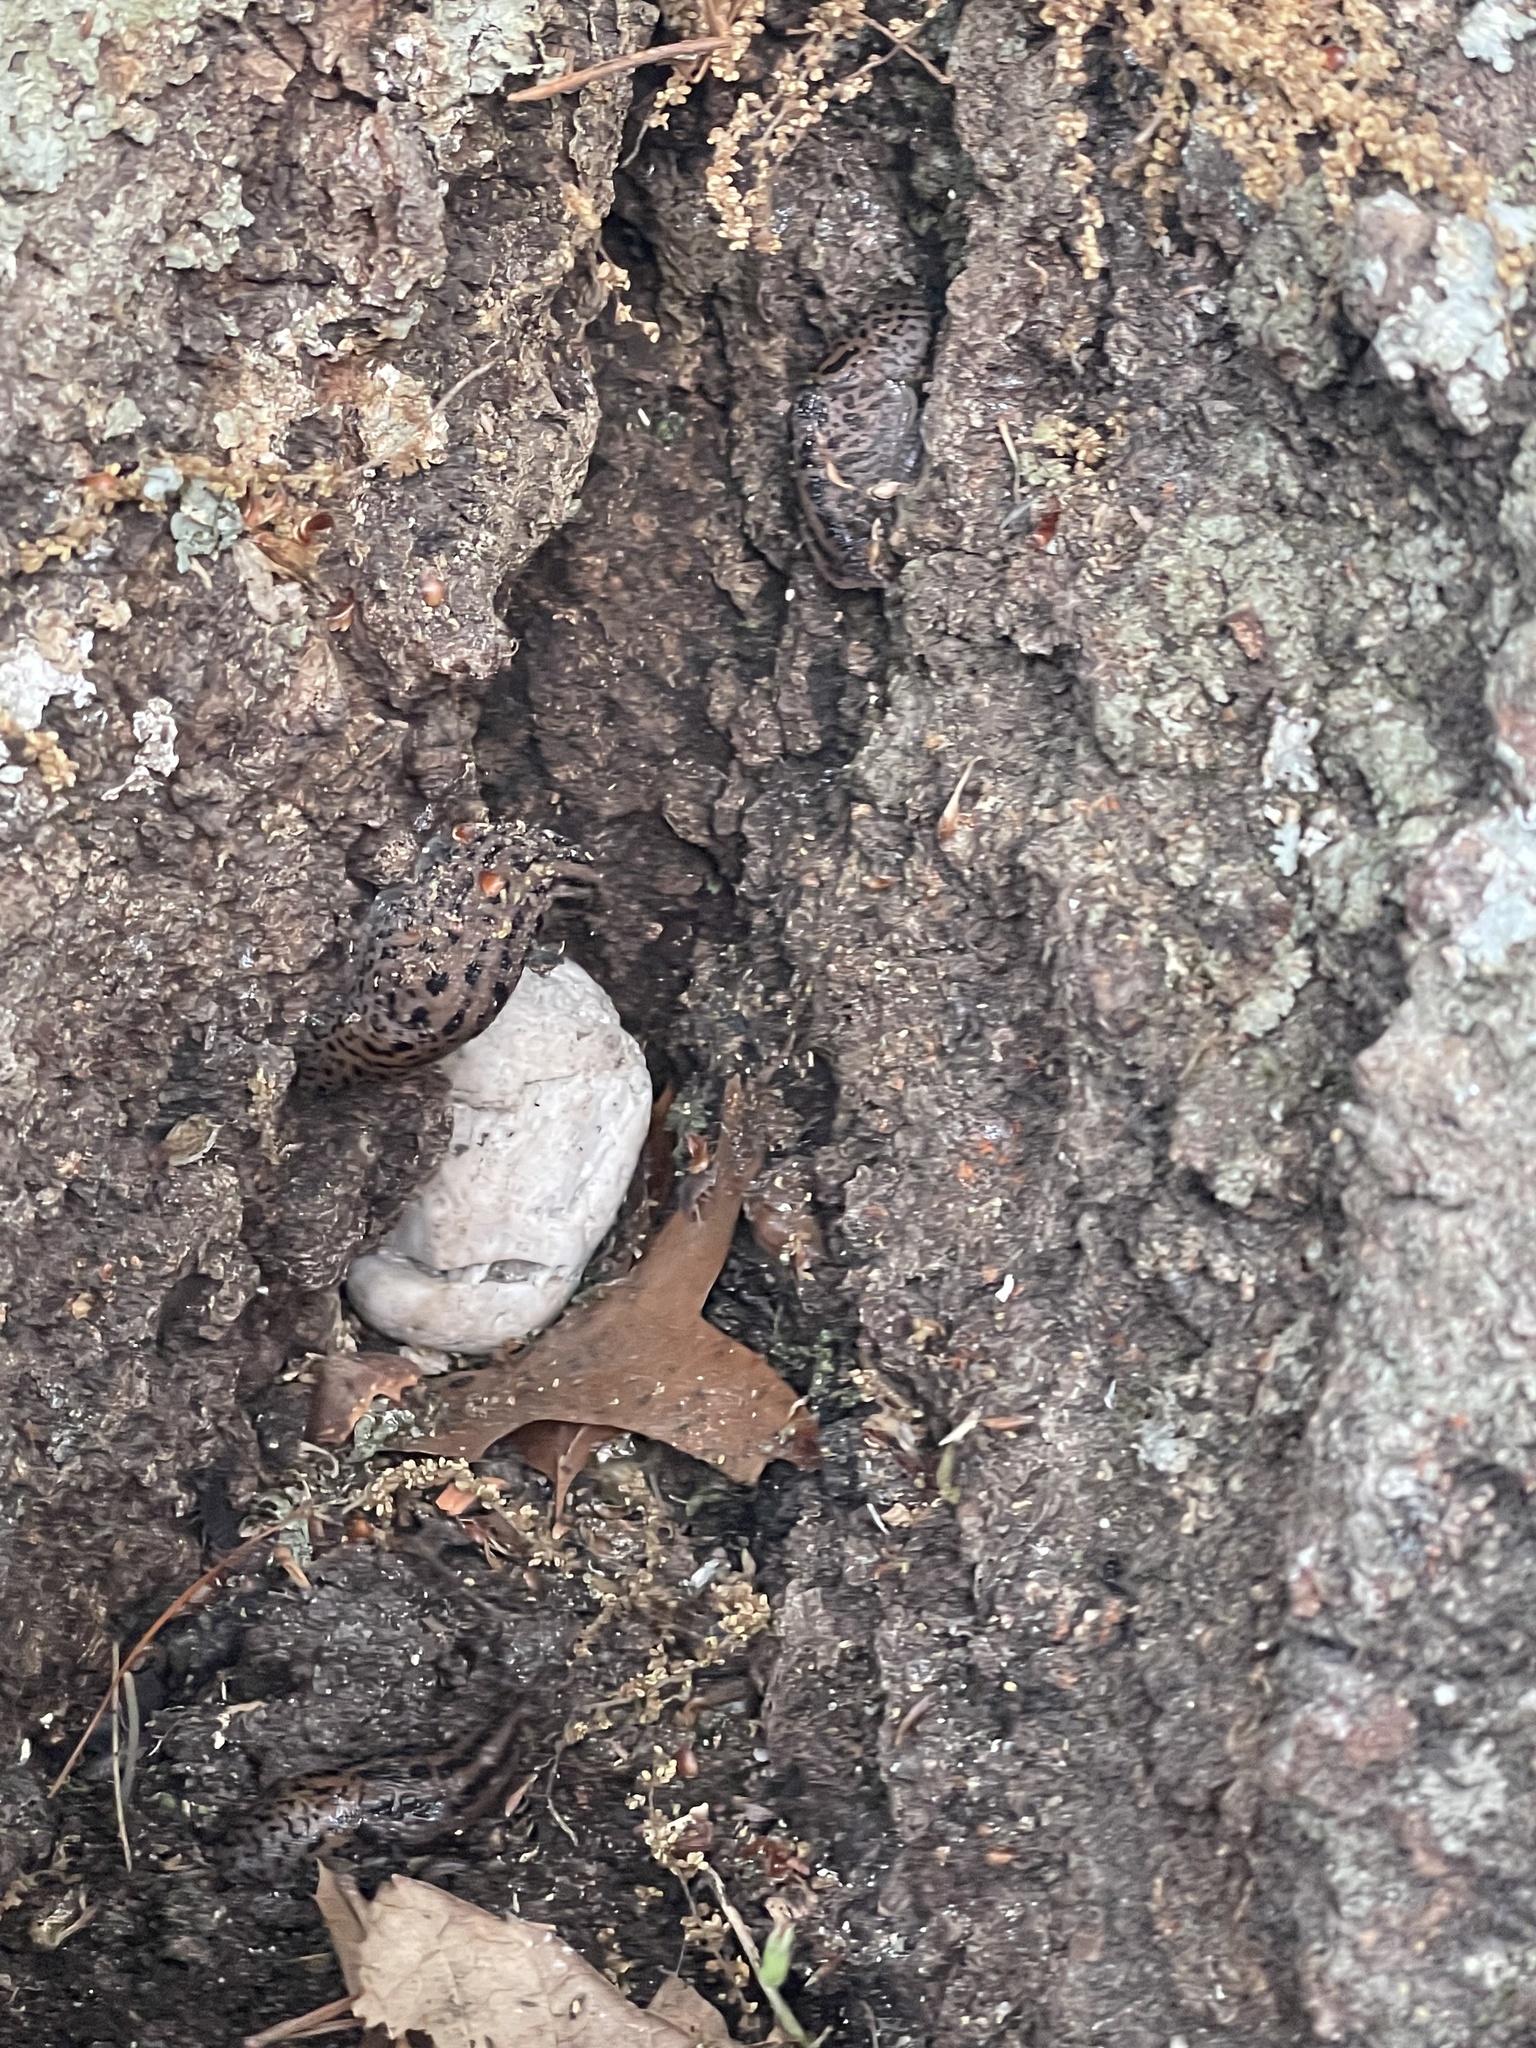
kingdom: Animalia
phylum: Mollusca
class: Gastropoda
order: Stylommatophora
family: Limacidae
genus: Limax
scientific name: Limax maximus
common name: Great grey slug
